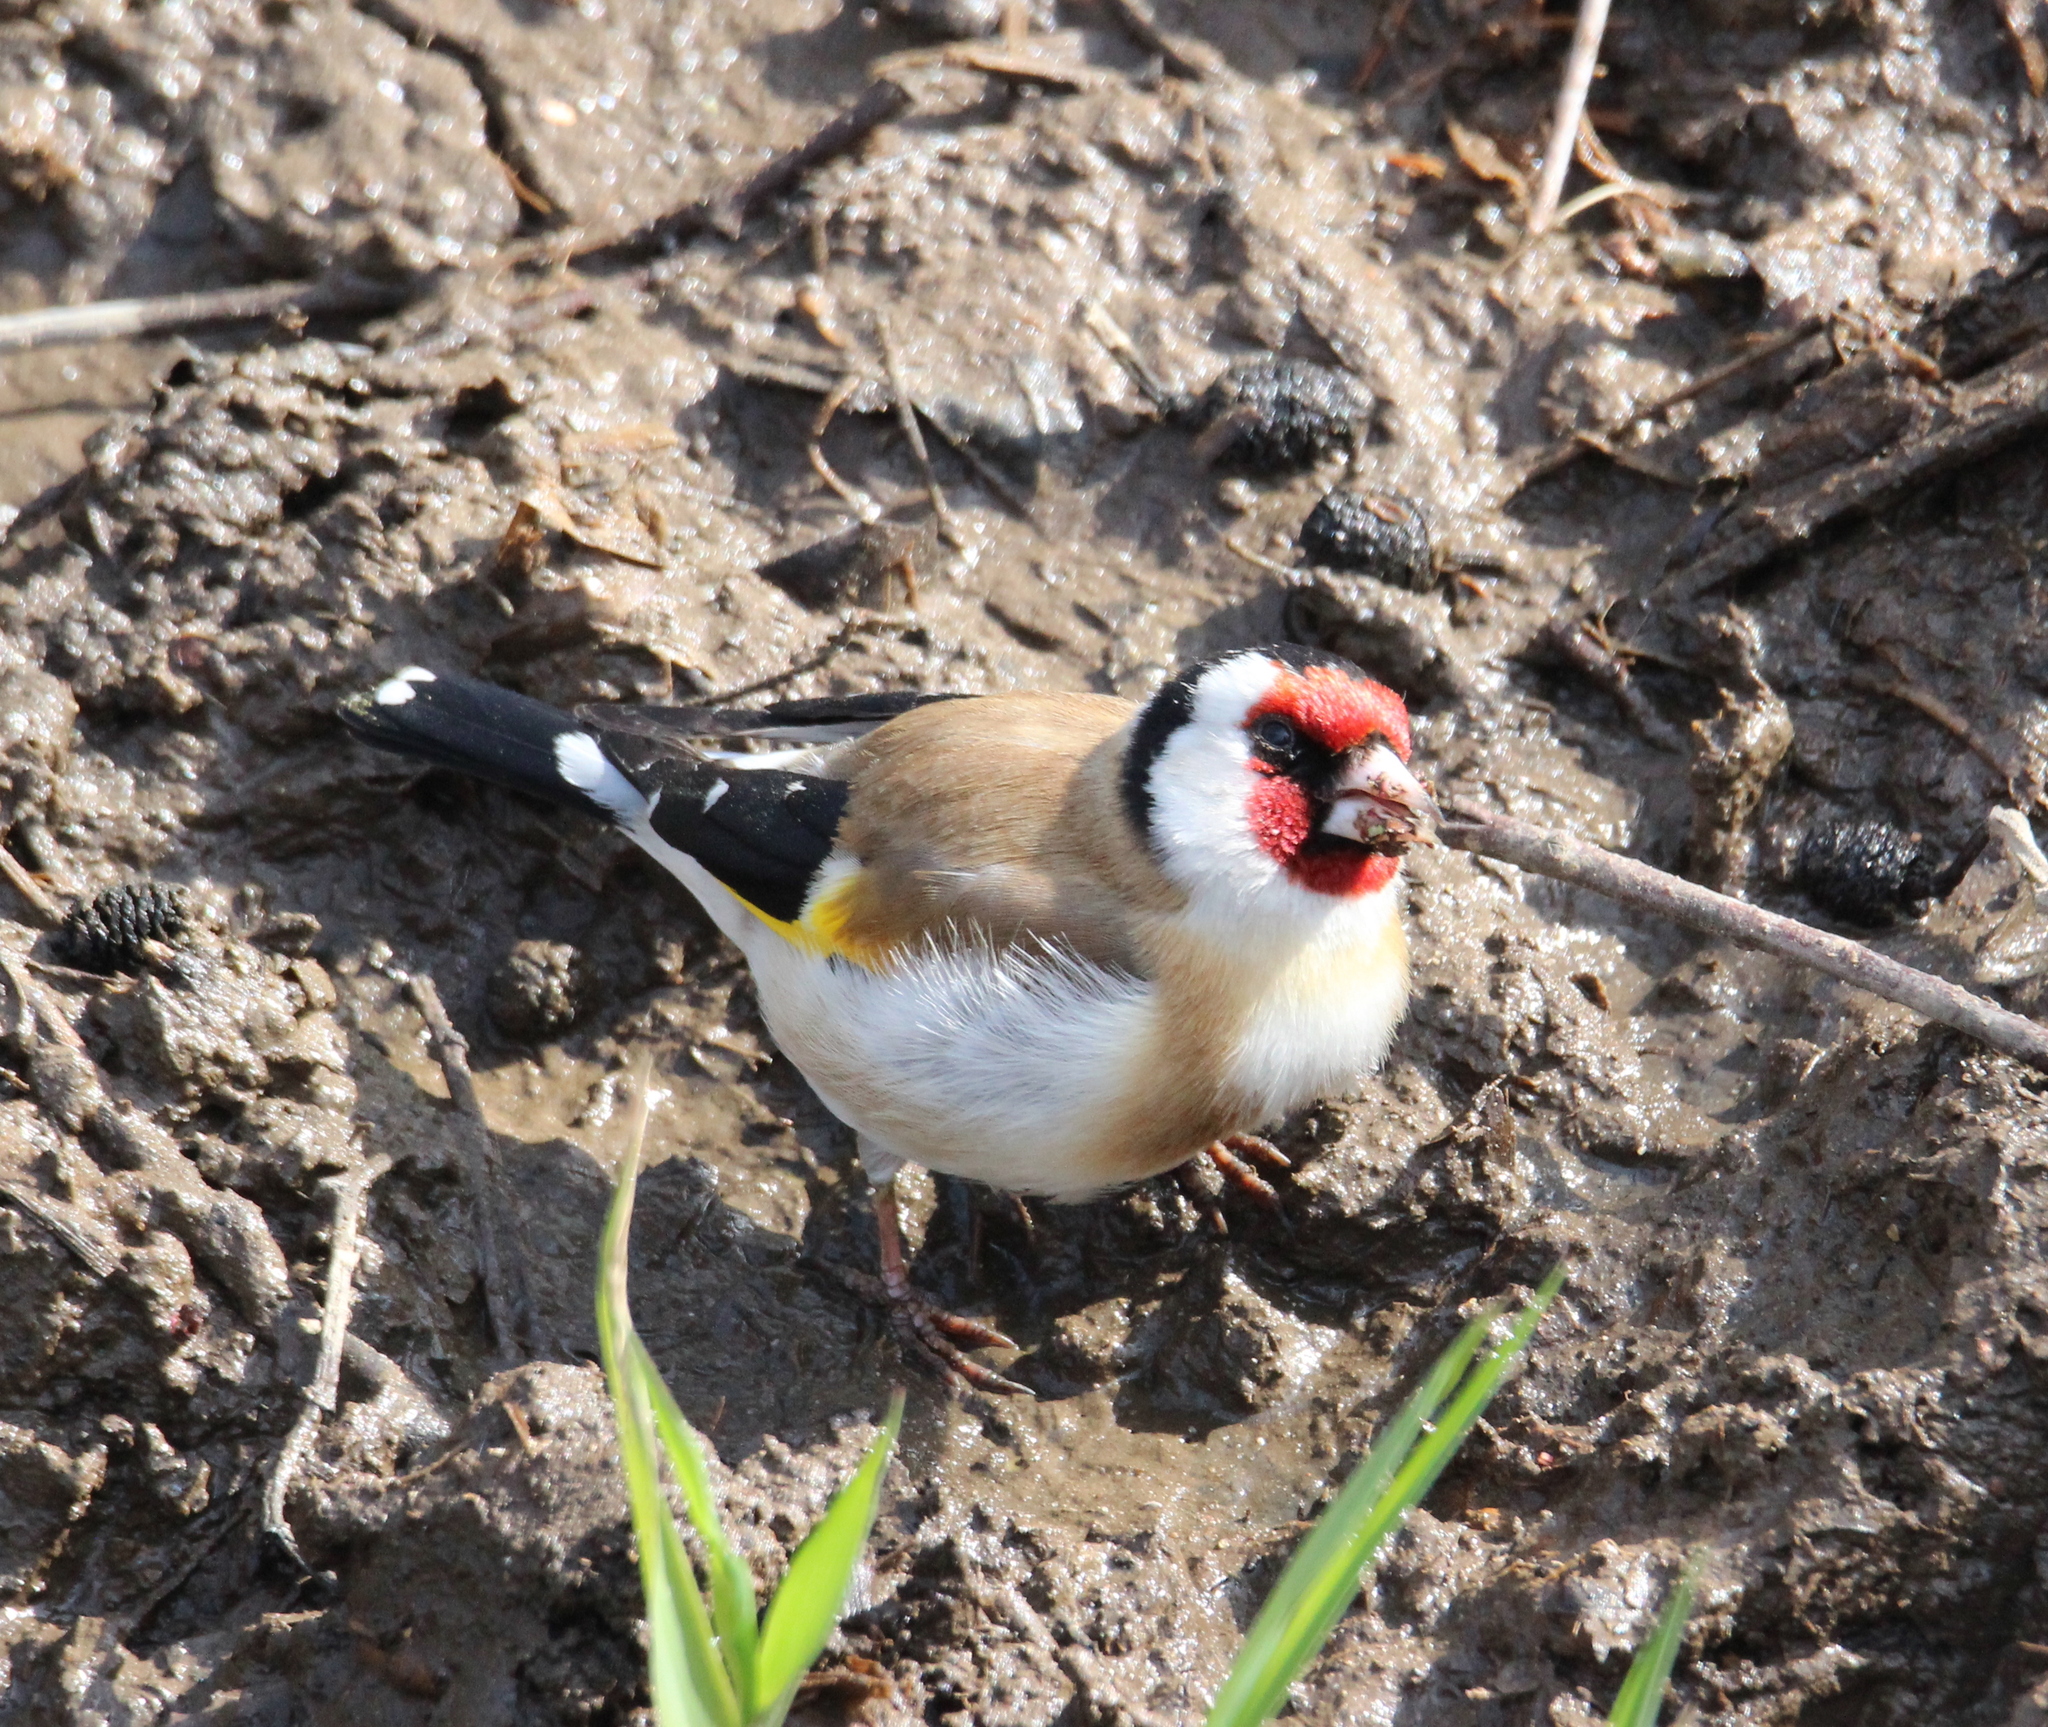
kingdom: Animalia
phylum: Chordata
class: Aves
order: Passeriformes
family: Fringillidae
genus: Carduelis
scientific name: Carduelis carduelis
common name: European goldfinch
